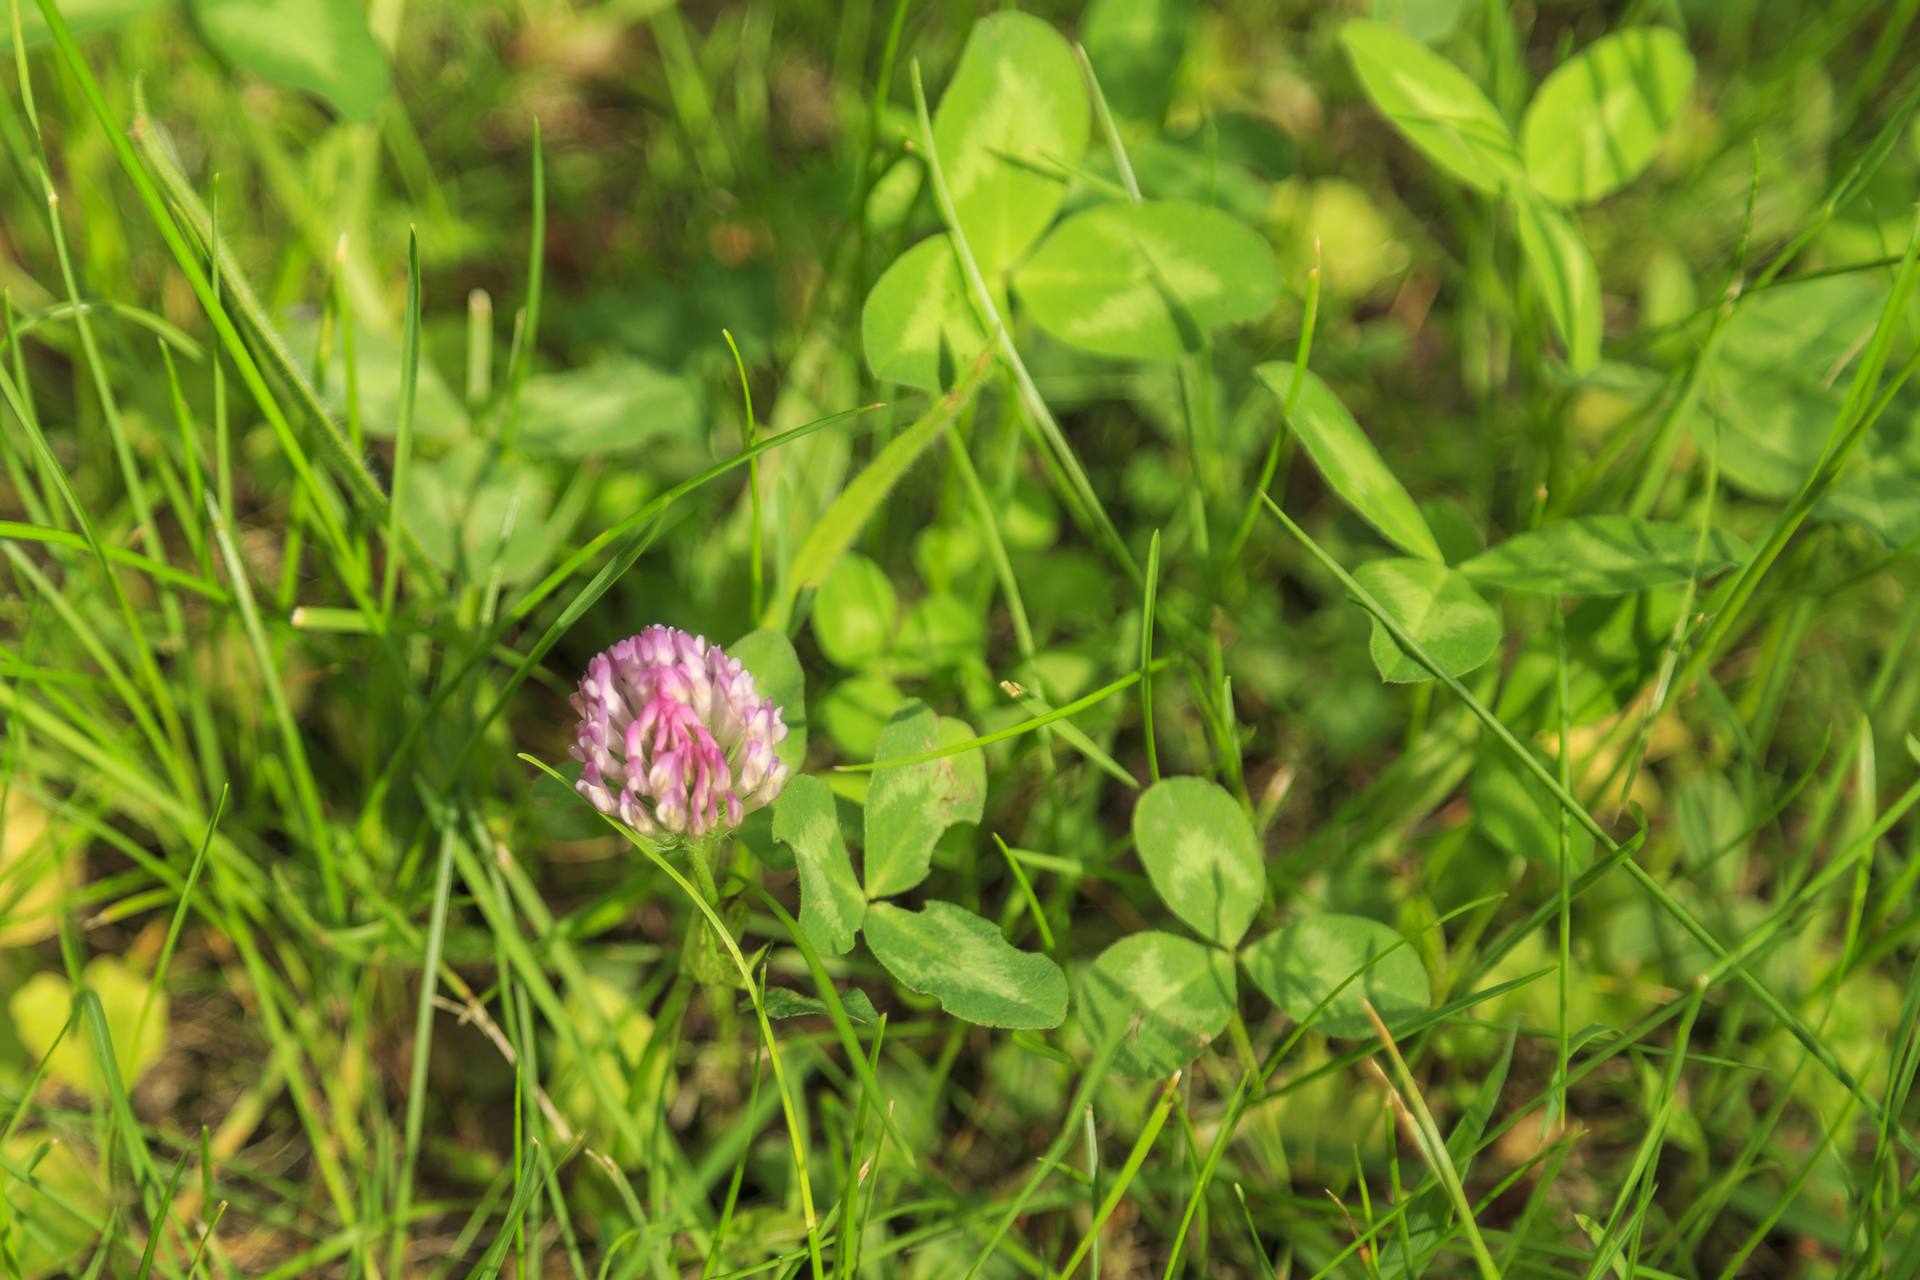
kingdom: Plantae
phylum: Tracheophyta
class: Magnoliopsida
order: Fabales
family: Fabaceae
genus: Trifolium
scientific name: Trifolium pratense
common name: Red clover
